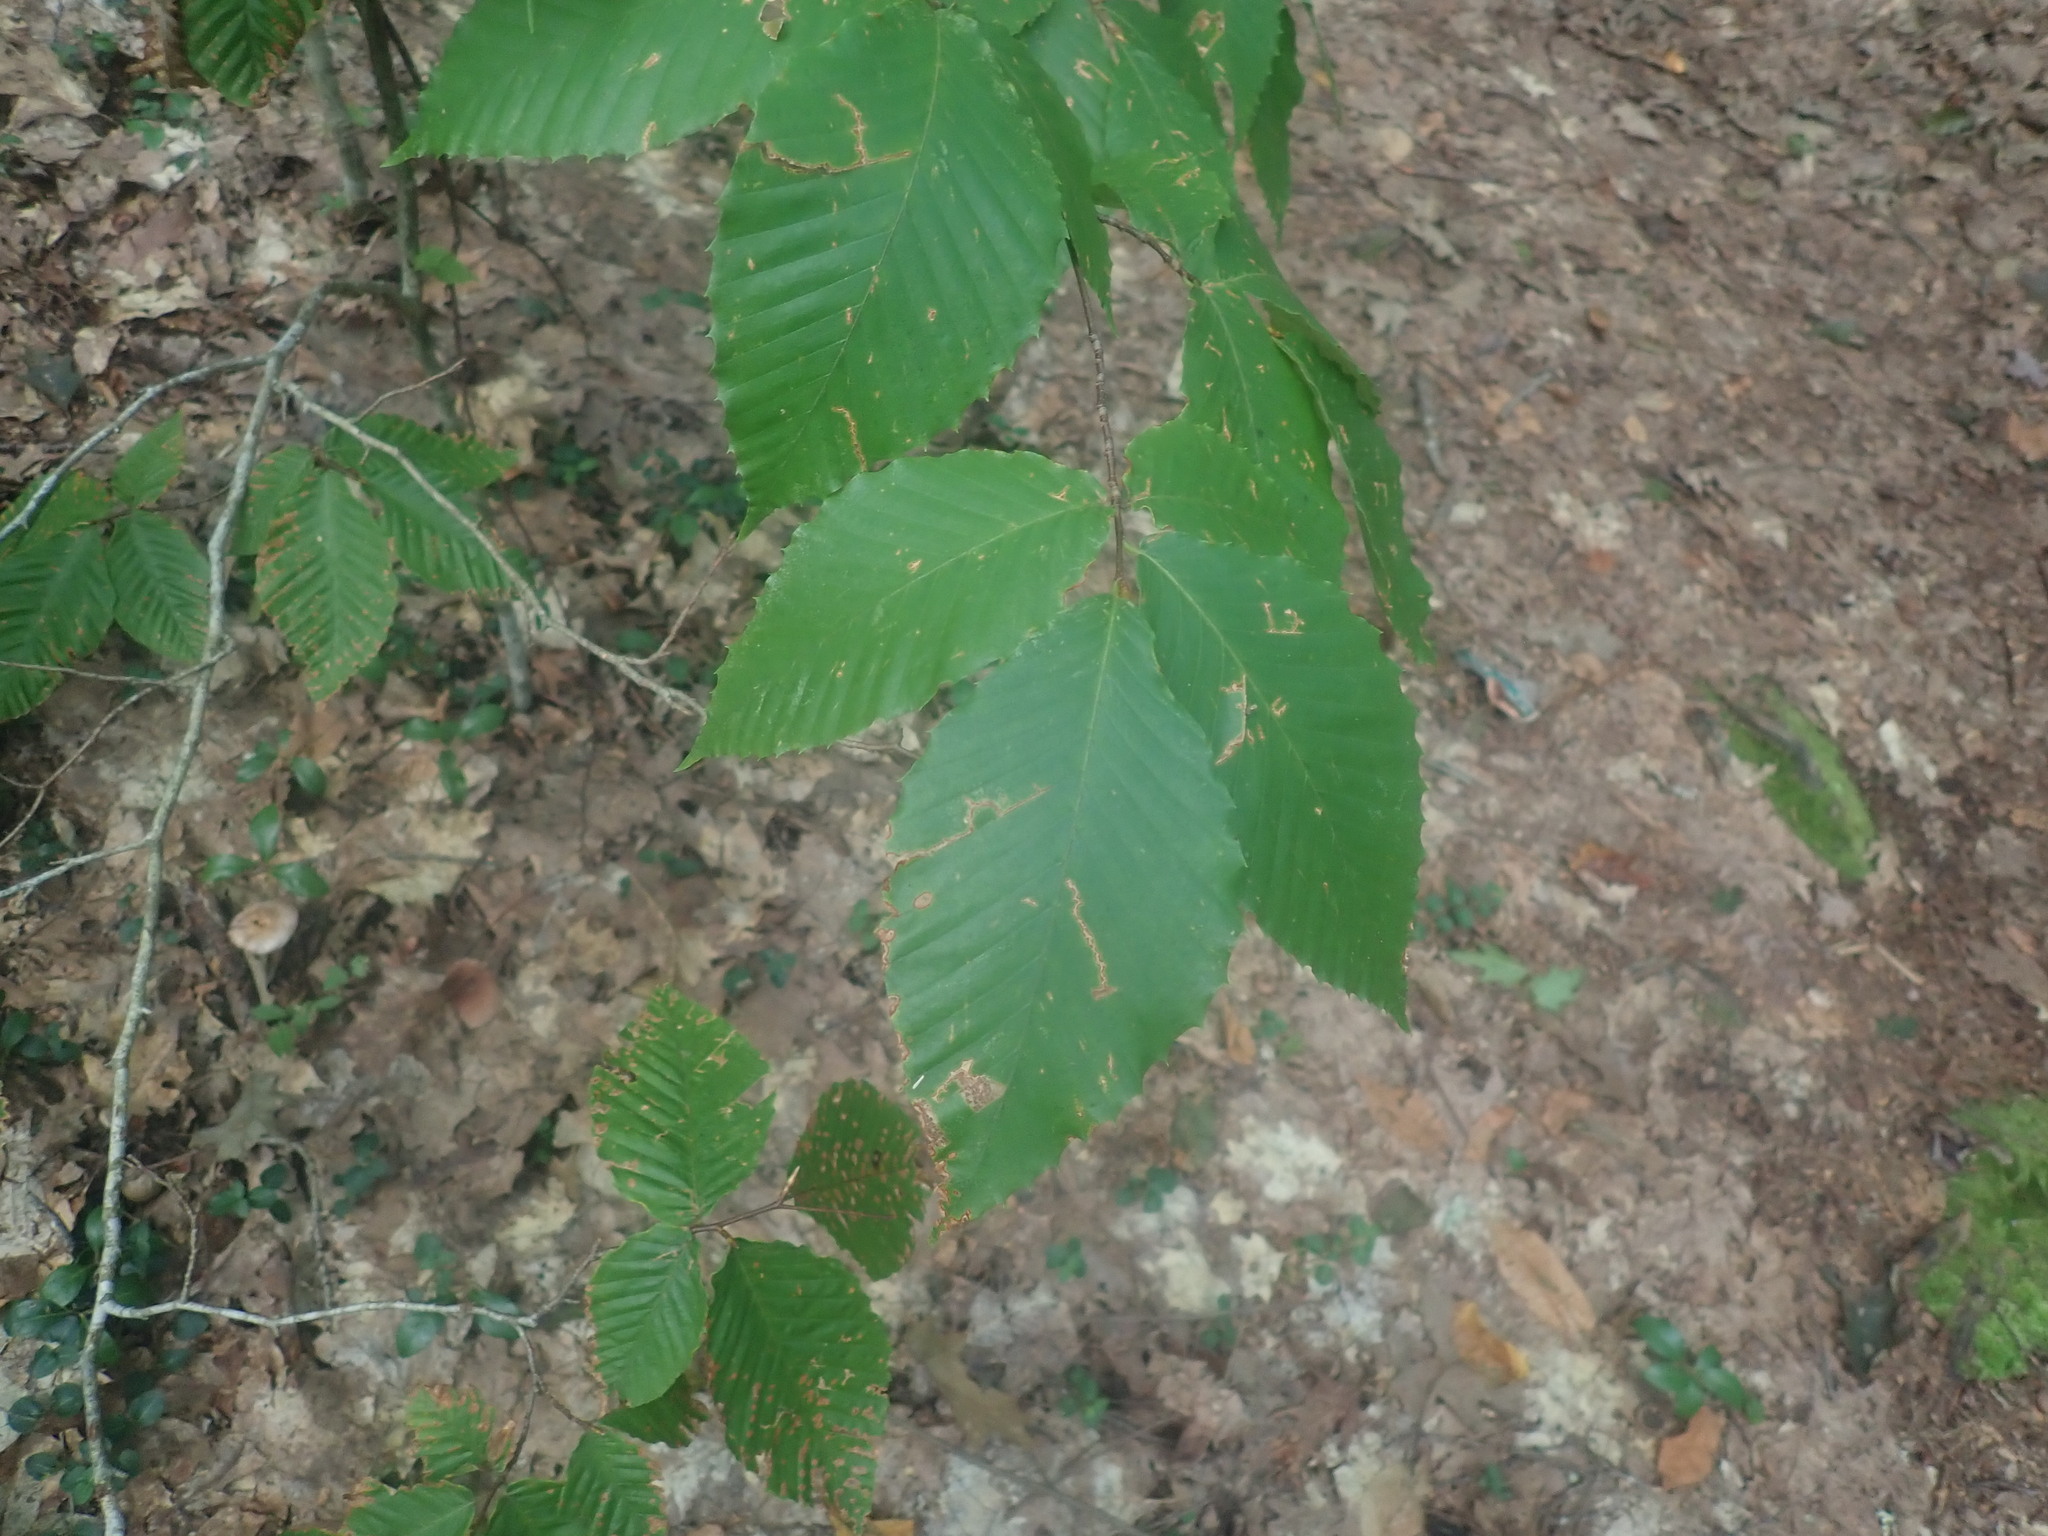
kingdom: Plantae
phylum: Tracheophyta
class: Magnoliopsida
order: Fagales
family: Fagaceae
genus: Fagus
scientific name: Fagus grandifolia
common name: American beech
